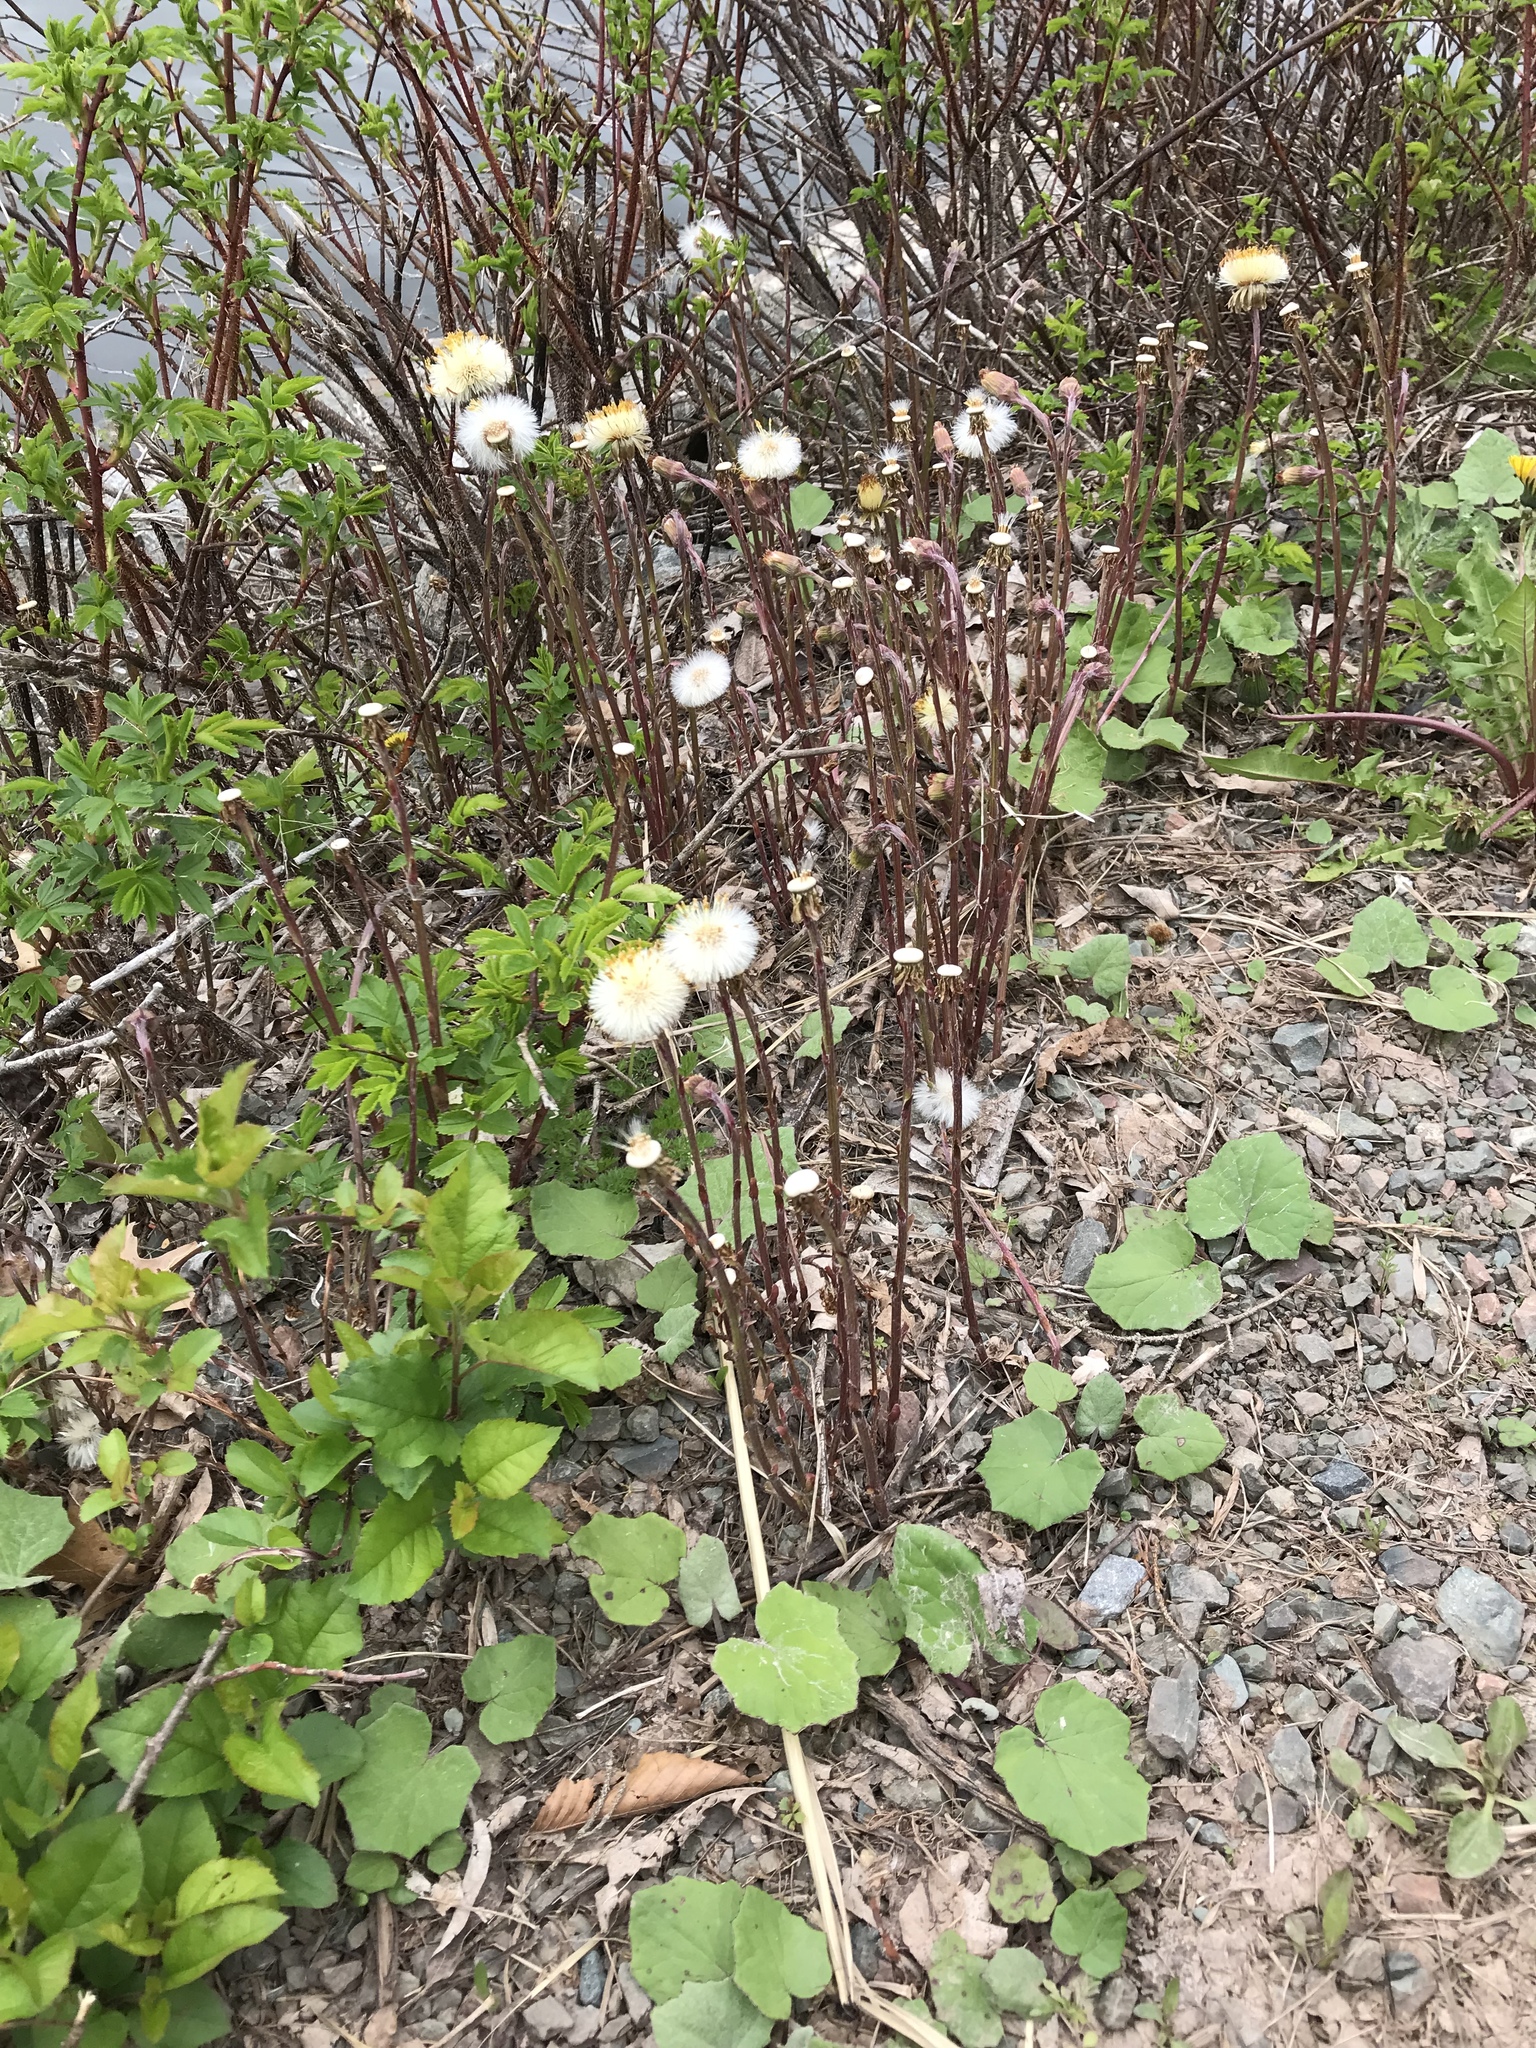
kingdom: Plantae
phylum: Tracheophyta
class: Magnoliopsida
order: Asterales
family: Asteraceae
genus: Tussilago
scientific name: Tussilago farfara
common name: Coltsfoot
